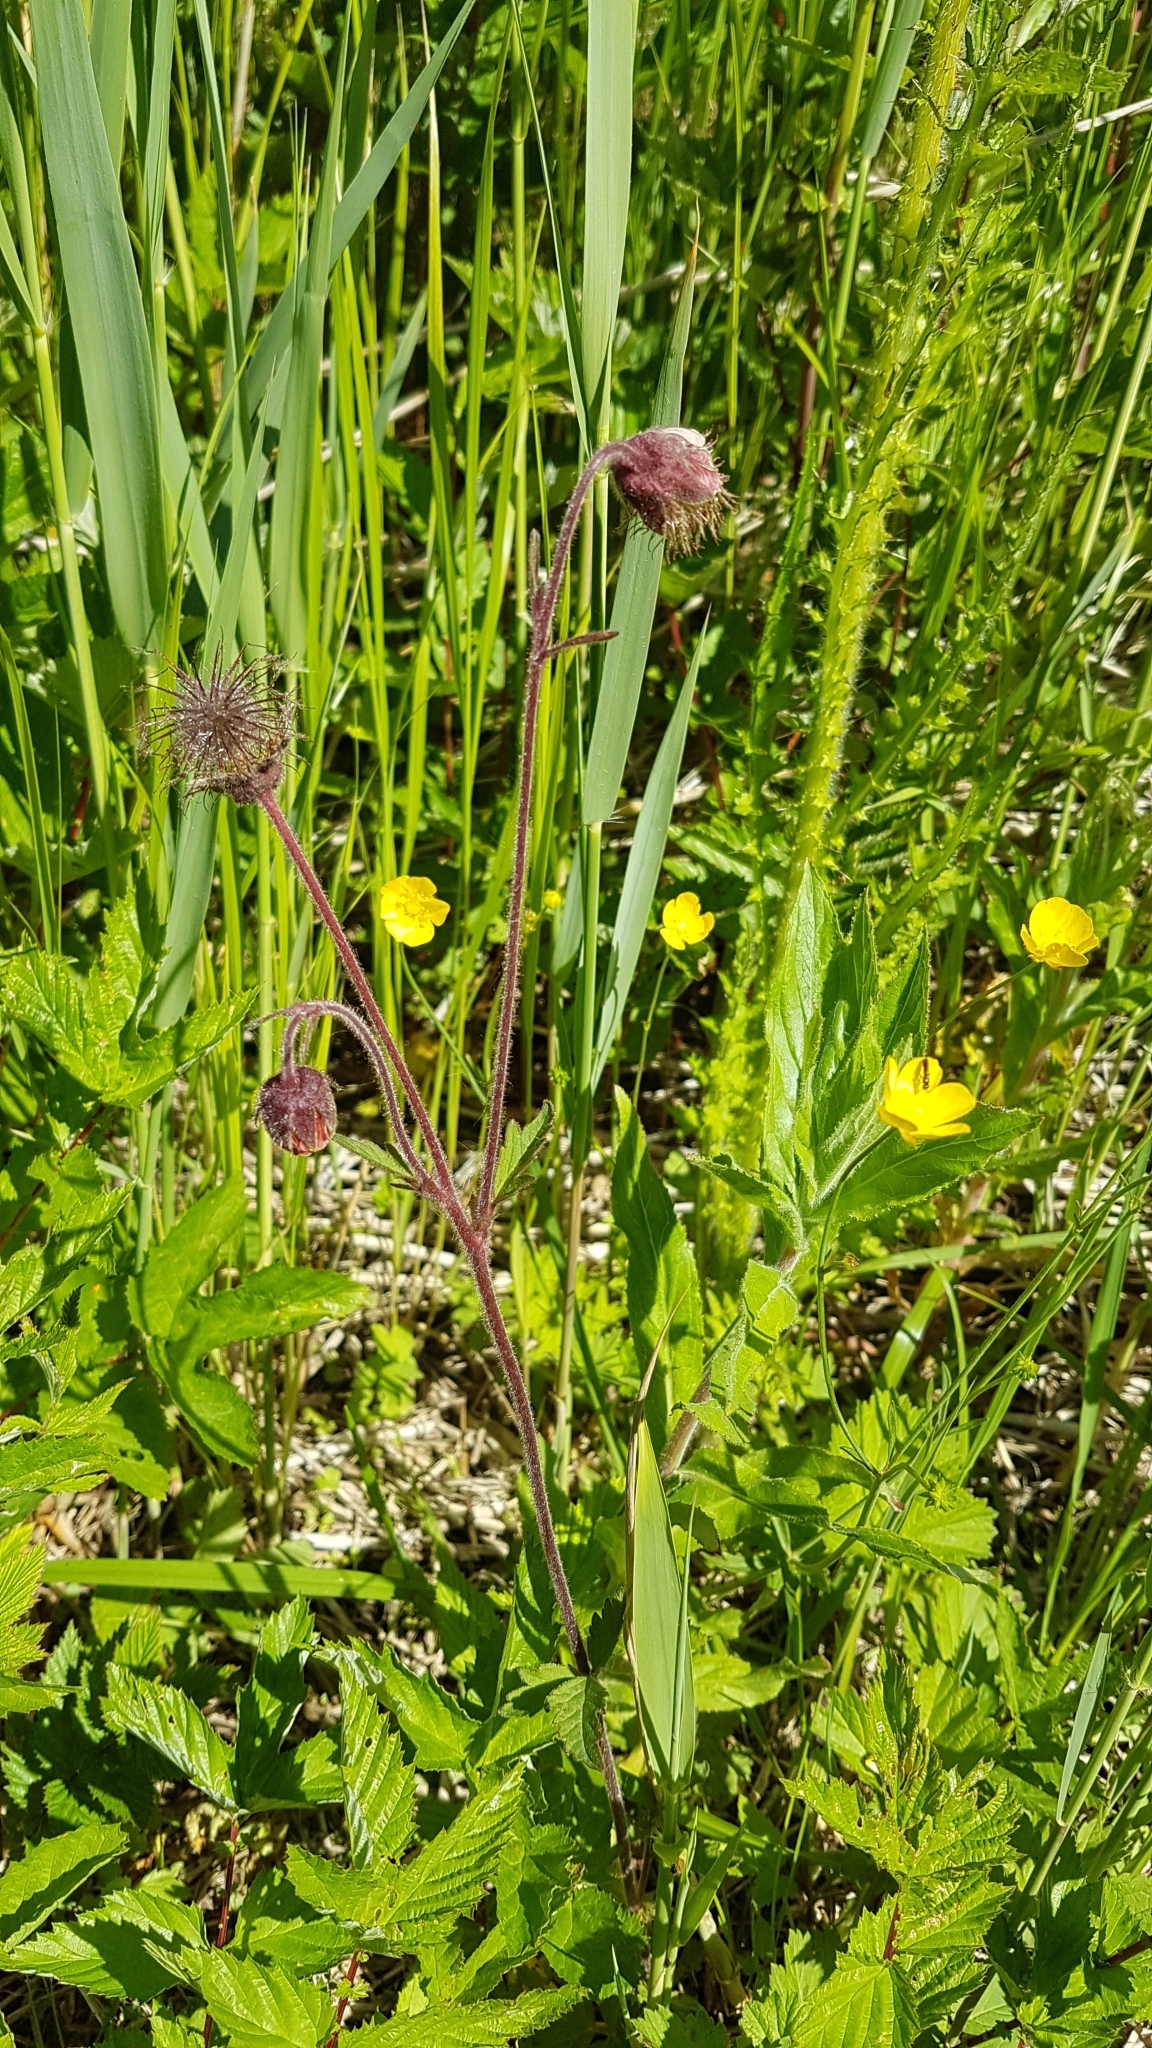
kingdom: Plantae
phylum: Tracheophyta
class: Magnoliopsida
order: Rosales
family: Rosaceae
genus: Geum
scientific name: Geum rivale
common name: Water avens
